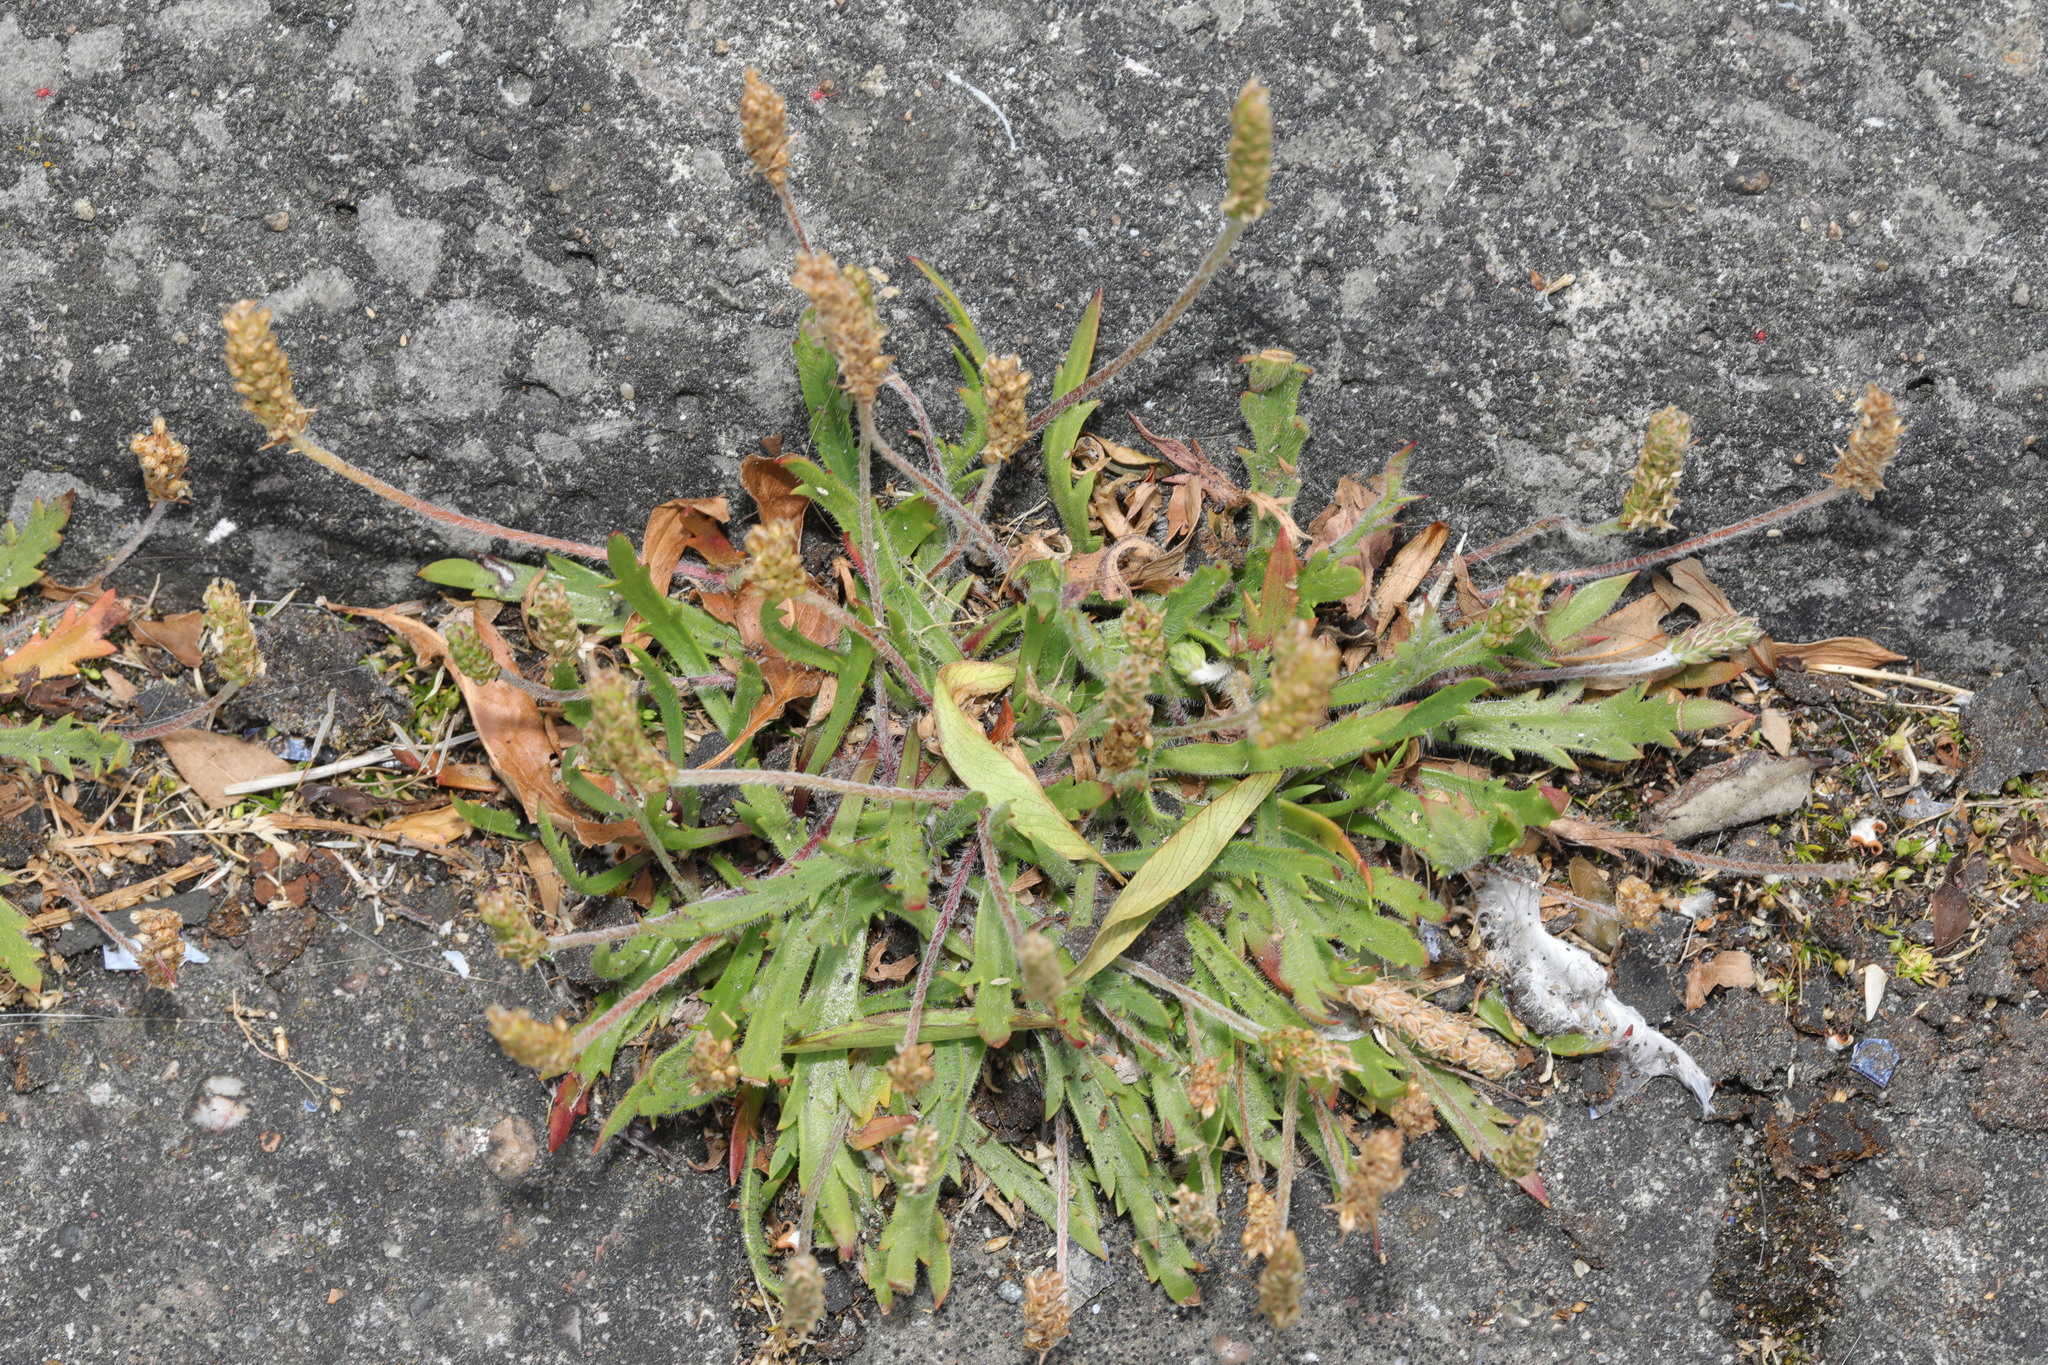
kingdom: Plantae
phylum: Tracheophyta
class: Magnoliopsida
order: Lamiales
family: Plantaginaceae
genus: Plantago
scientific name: Plantago coronopus
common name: Buck's-horn plantain
